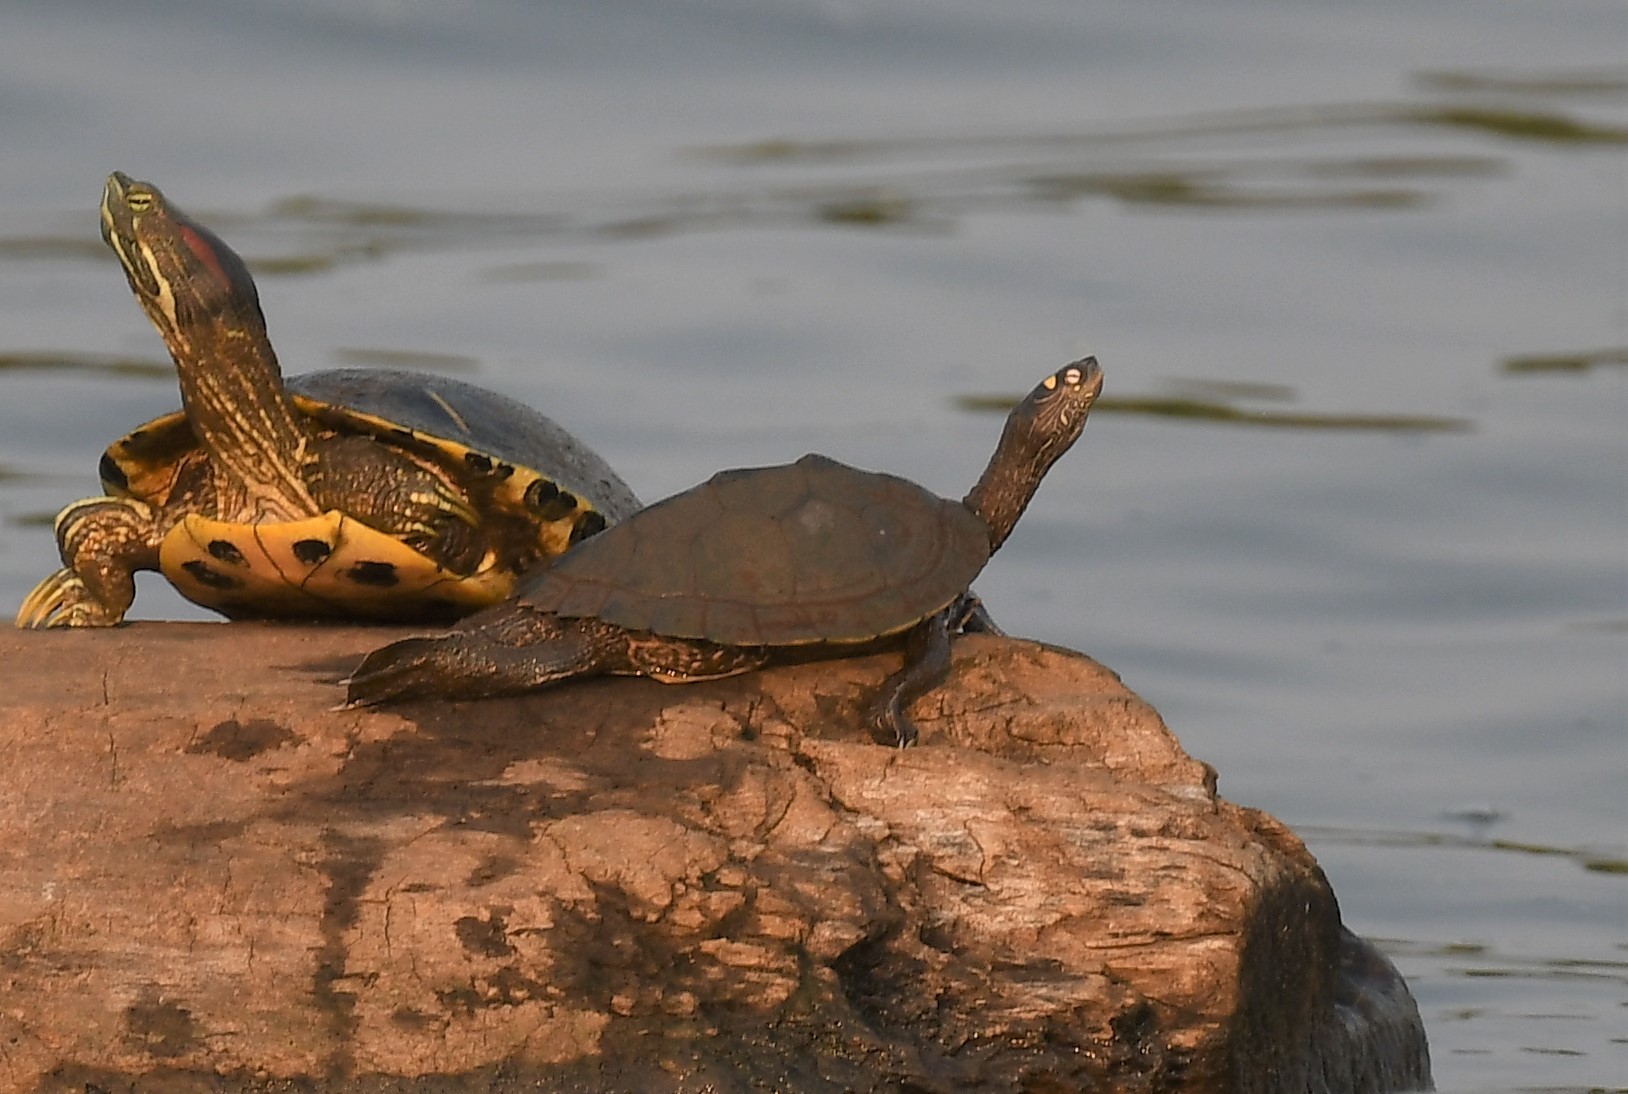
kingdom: Animalia
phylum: Chordata
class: Testudines
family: Emydidae
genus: Graptemys
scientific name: Graptemys ouachitensis
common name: Ouachita map turtle
